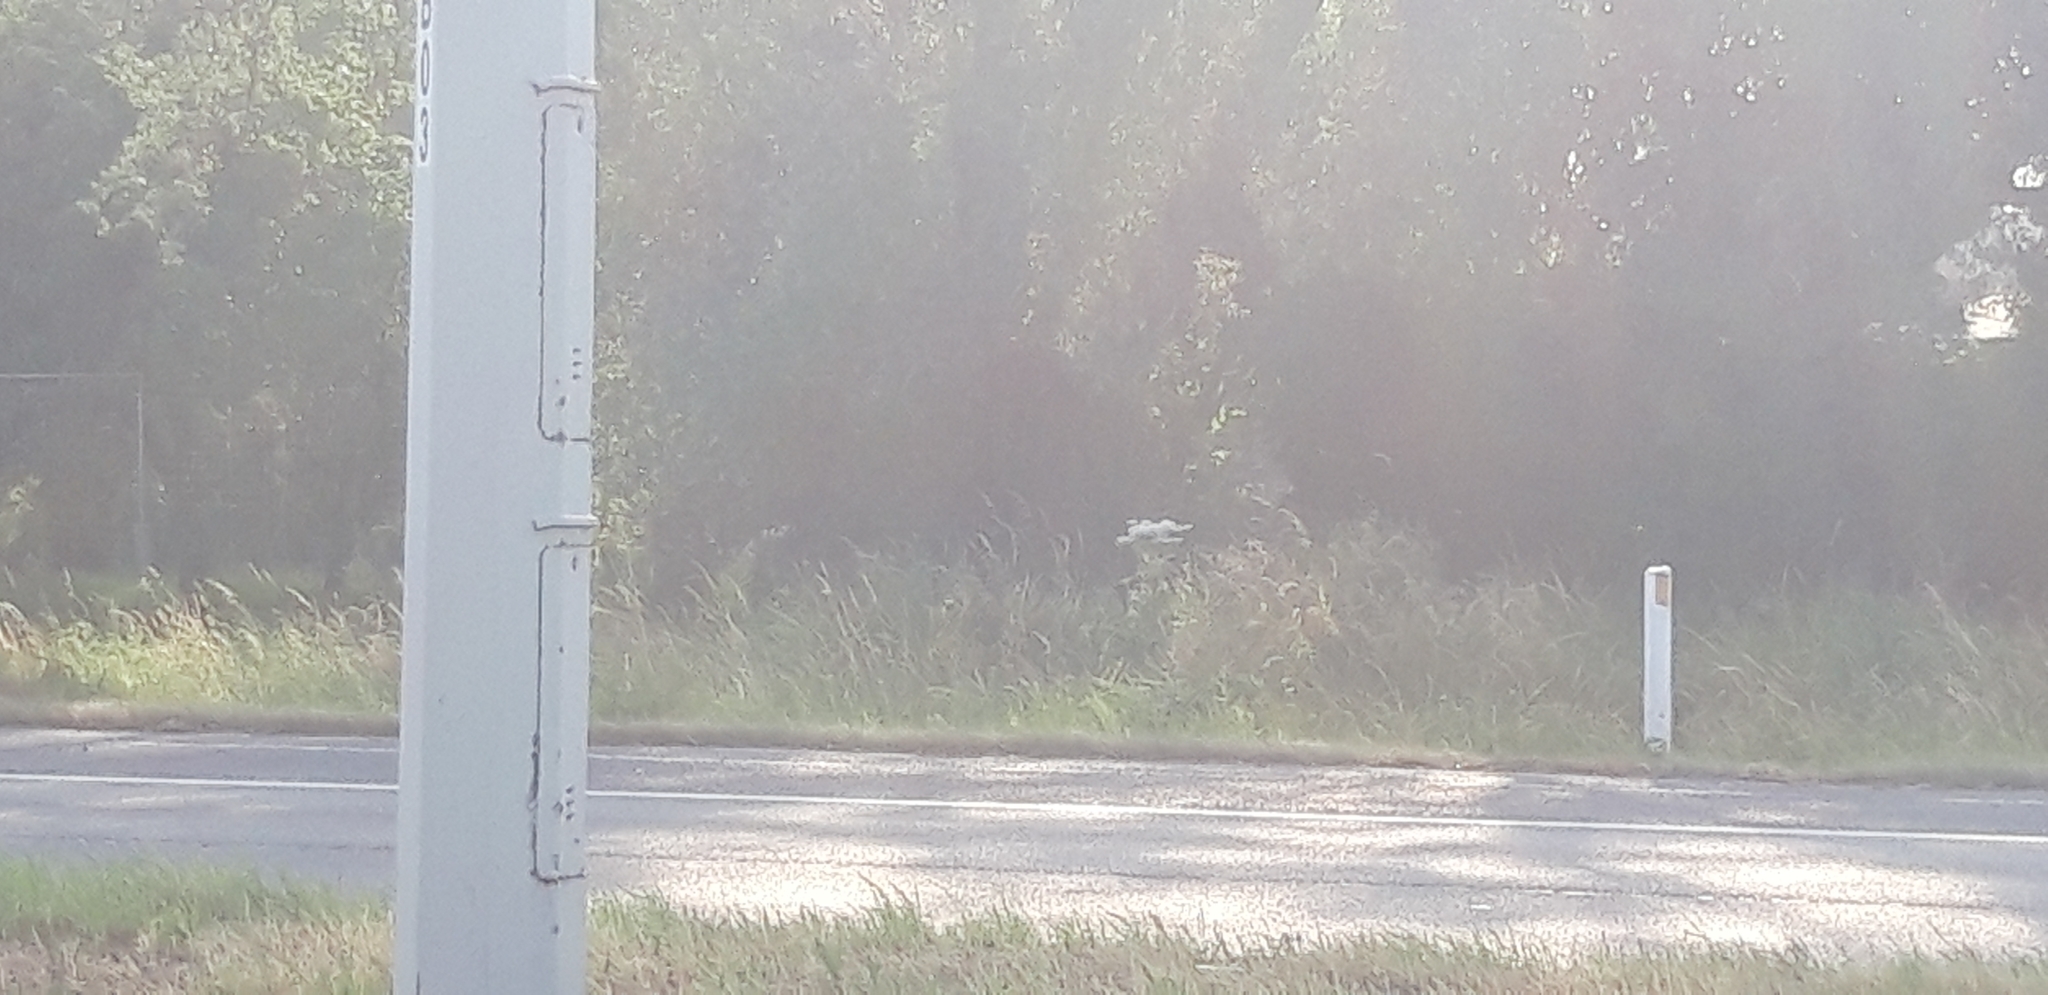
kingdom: Plantae
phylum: Tracheophyta
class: Magnoliopsida
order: Apiales
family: Apiaceae
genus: Heracleum
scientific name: Heracleum mantegazzianum
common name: Giant hogweed
